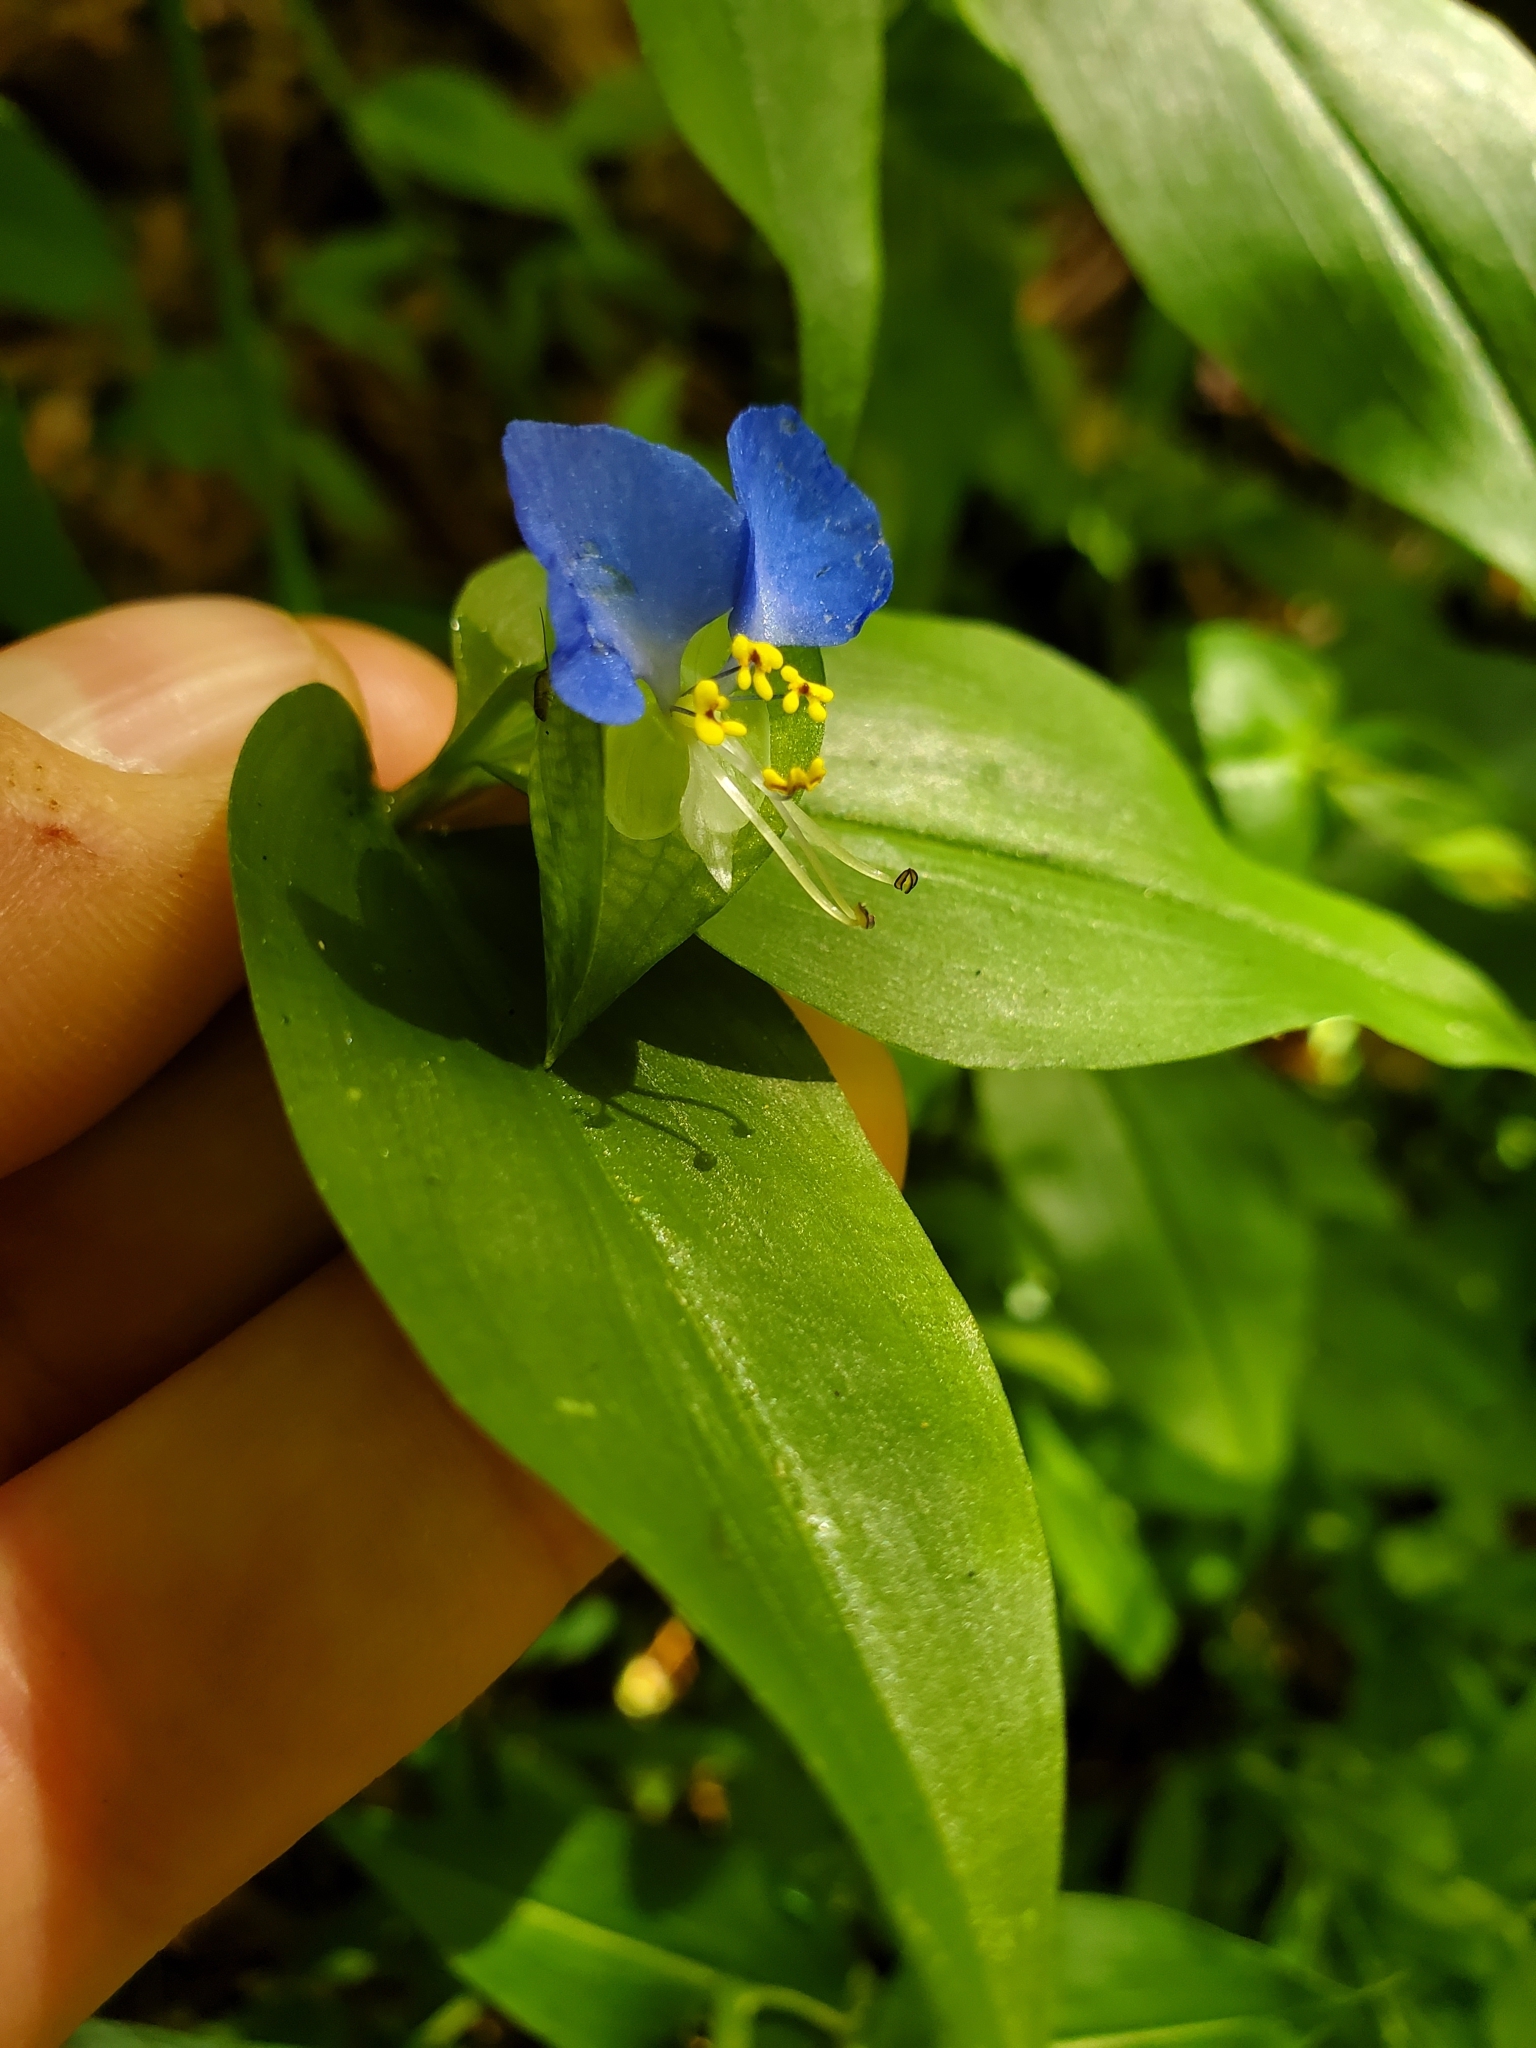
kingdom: Plantae
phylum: Tracheophyta
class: Liliopsida
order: Commelinales
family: Commelinaceae
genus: Commelina
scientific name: Commelina communis
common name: Asiatic dayflower
